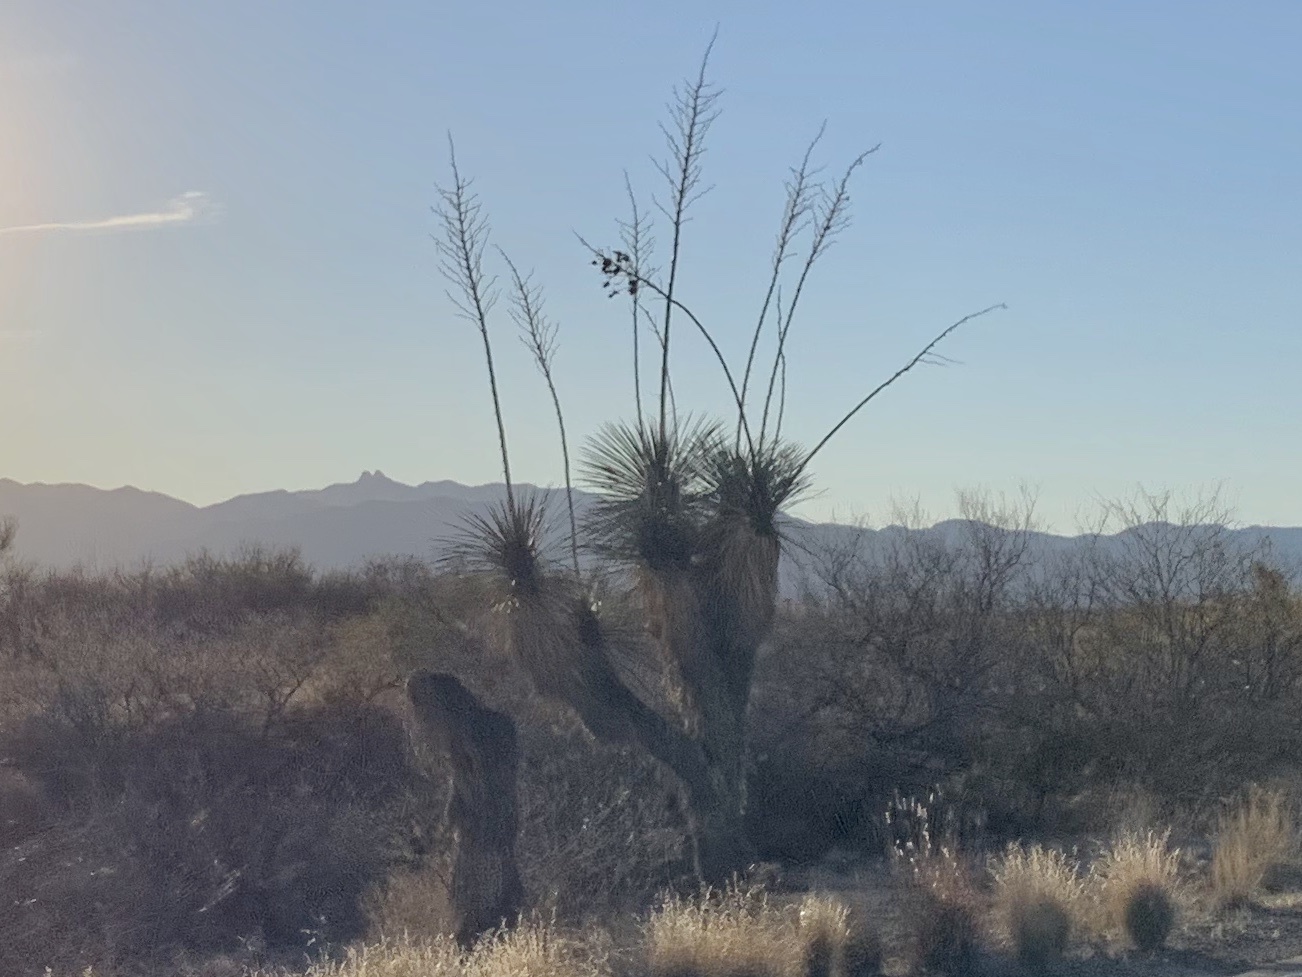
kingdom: Plantae
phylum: Tracheophyta
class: Liliopsida
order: Asparagales
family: Asparagaceae
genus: Yucca
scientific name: Yucca elata
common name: Palmella
